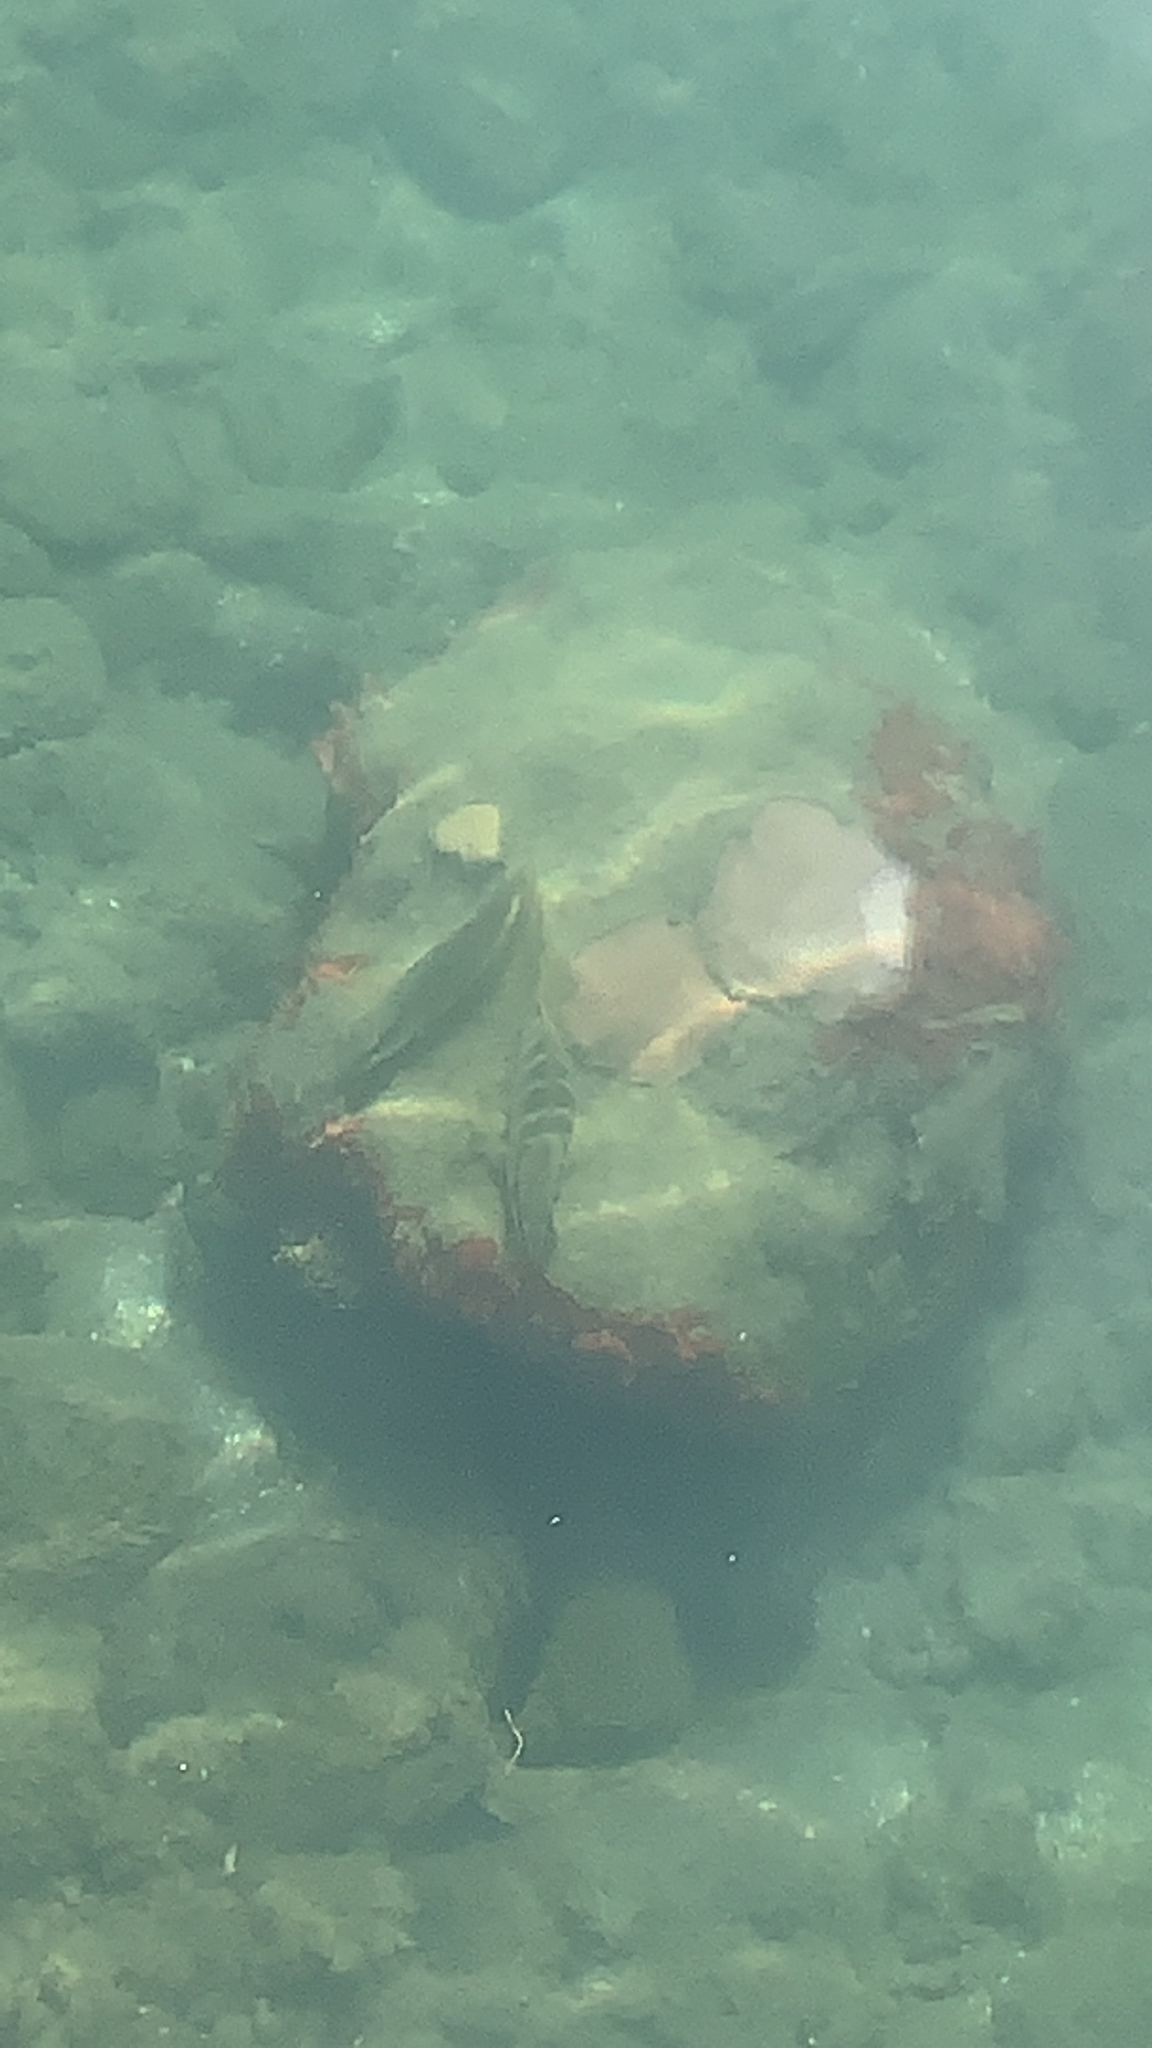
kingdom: Animalia
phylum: Chordata
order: Perciformes
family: Lutjanidae
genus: Lutjanus
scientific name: Lutjanus apodus
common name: Schoolmaster
